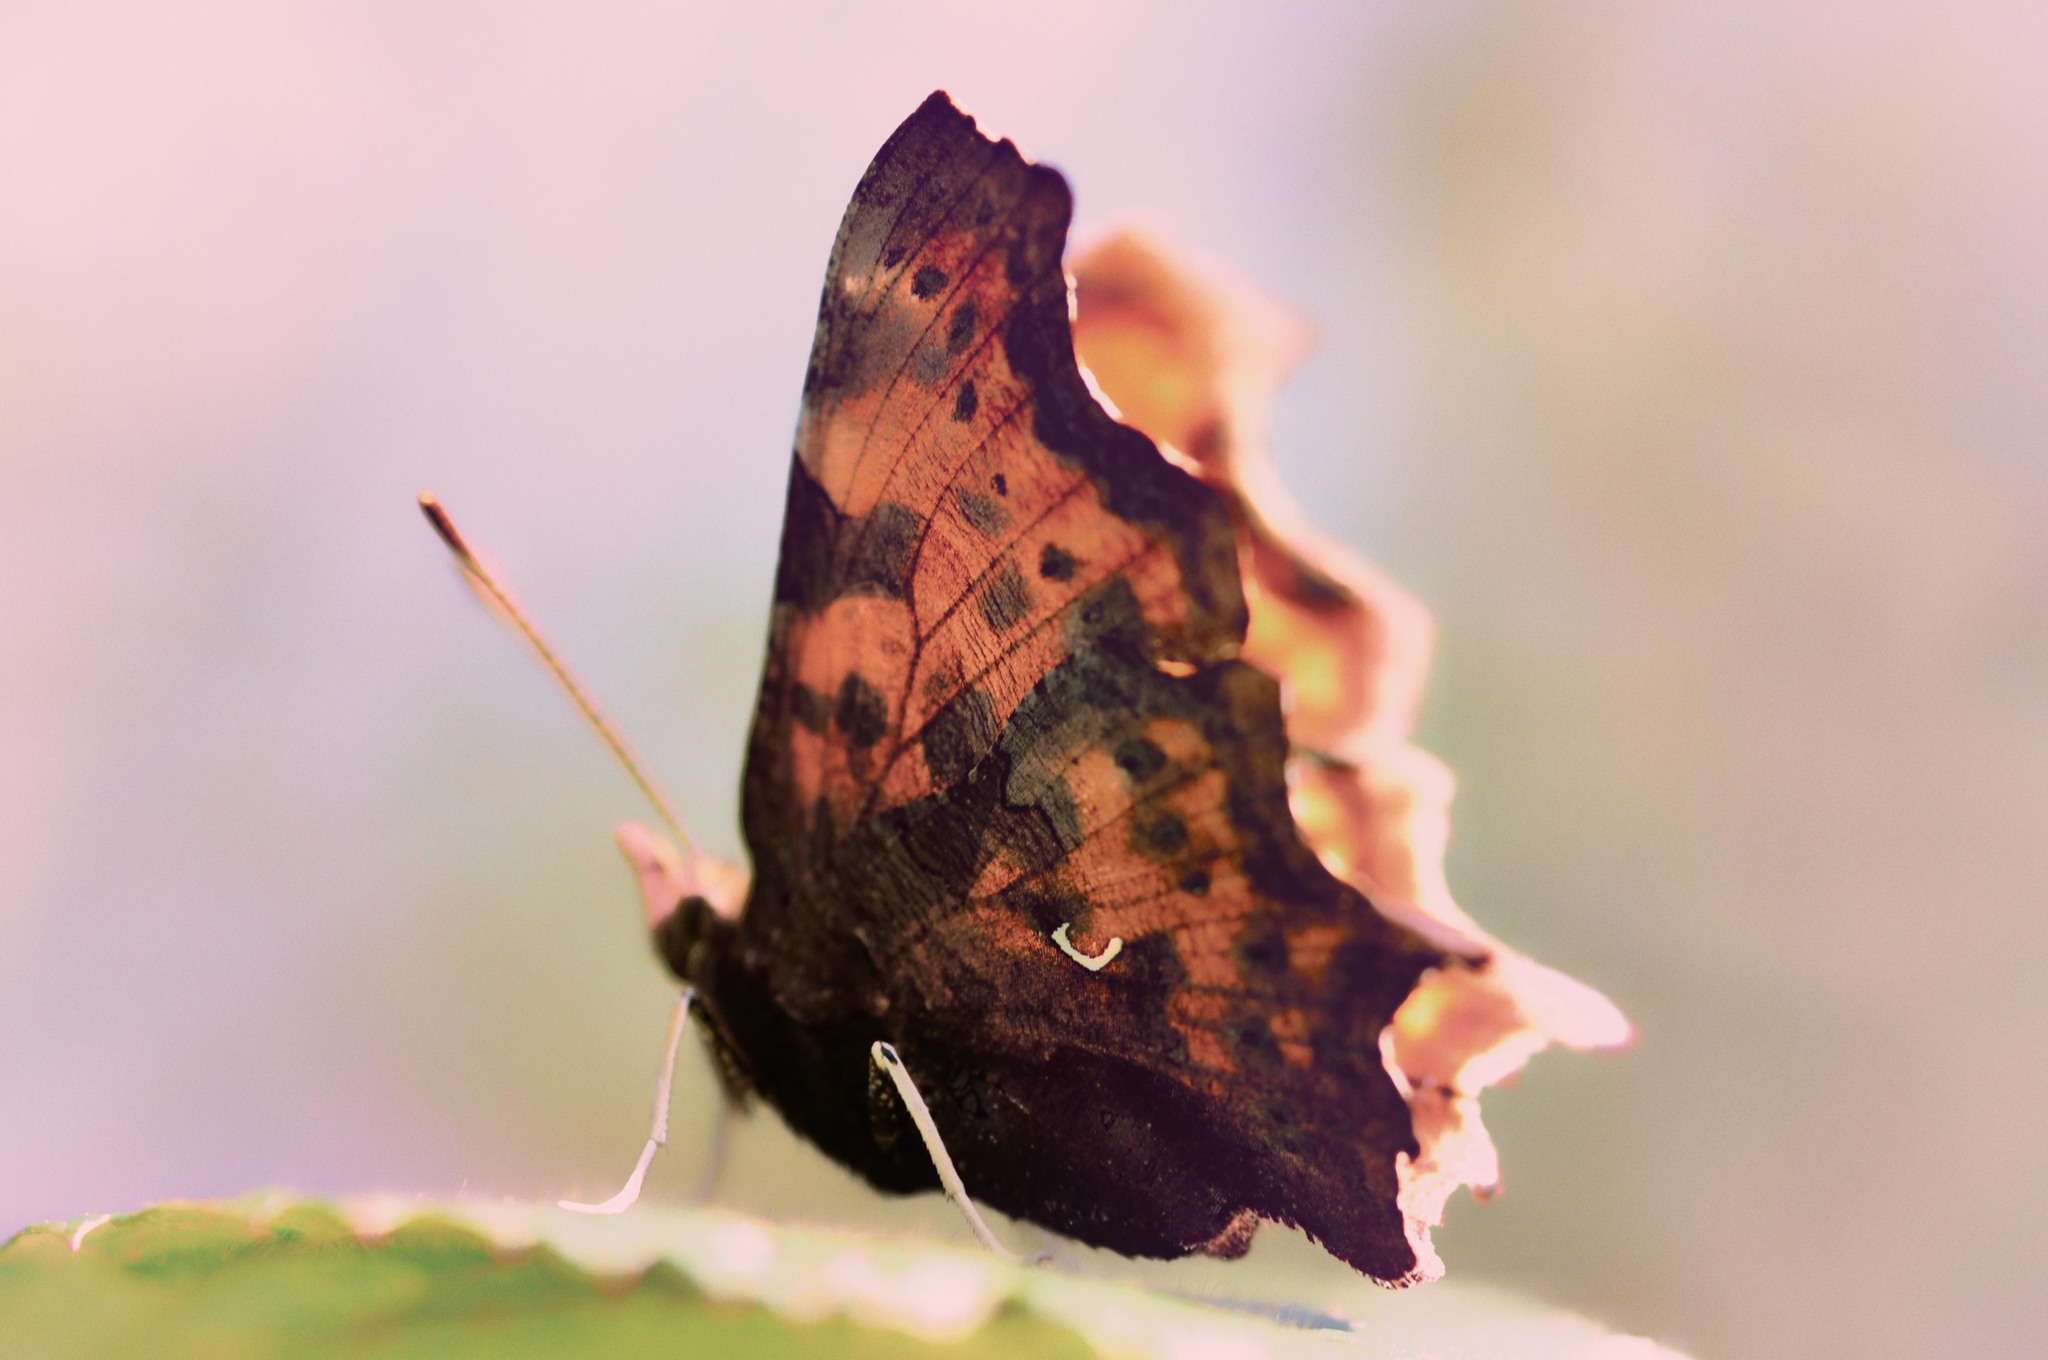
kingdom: Animalia
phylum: Arthropoda
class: Insecta
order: Lepidoptera
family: Nymphalidae
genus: Polygonia
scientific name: Polygonia c-album
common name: Comma
